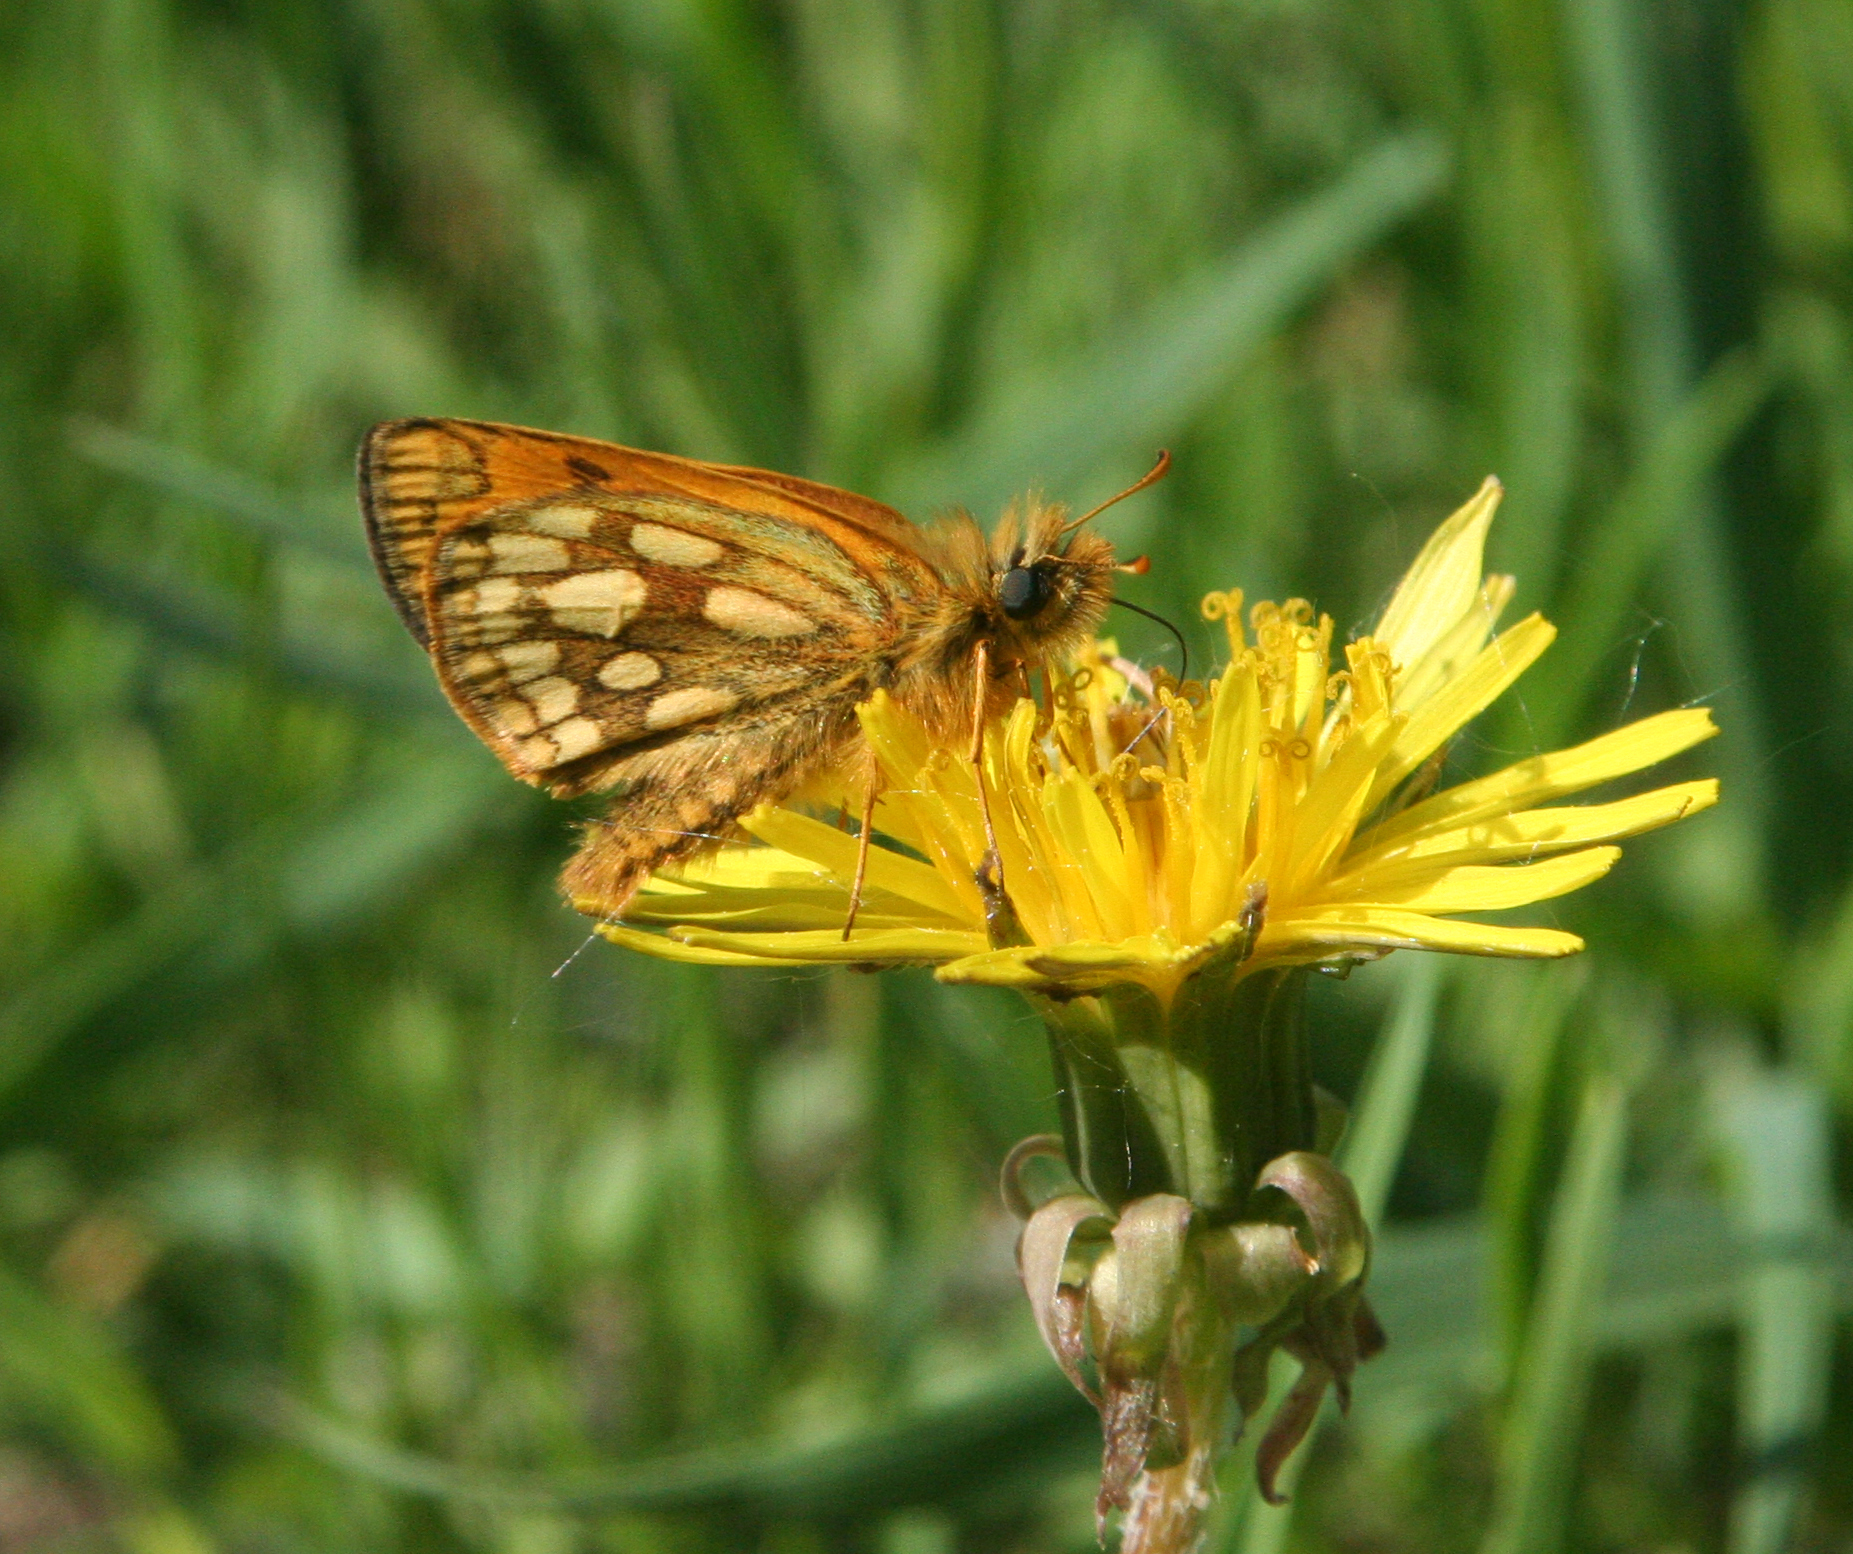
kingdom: Animalia
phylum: Arthropoda
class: Insecta
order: Lepidoptera
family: Hesperiidae
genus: Carterocephalus
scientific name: Carterocephalus silvicola
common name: Northern chequered skipper
